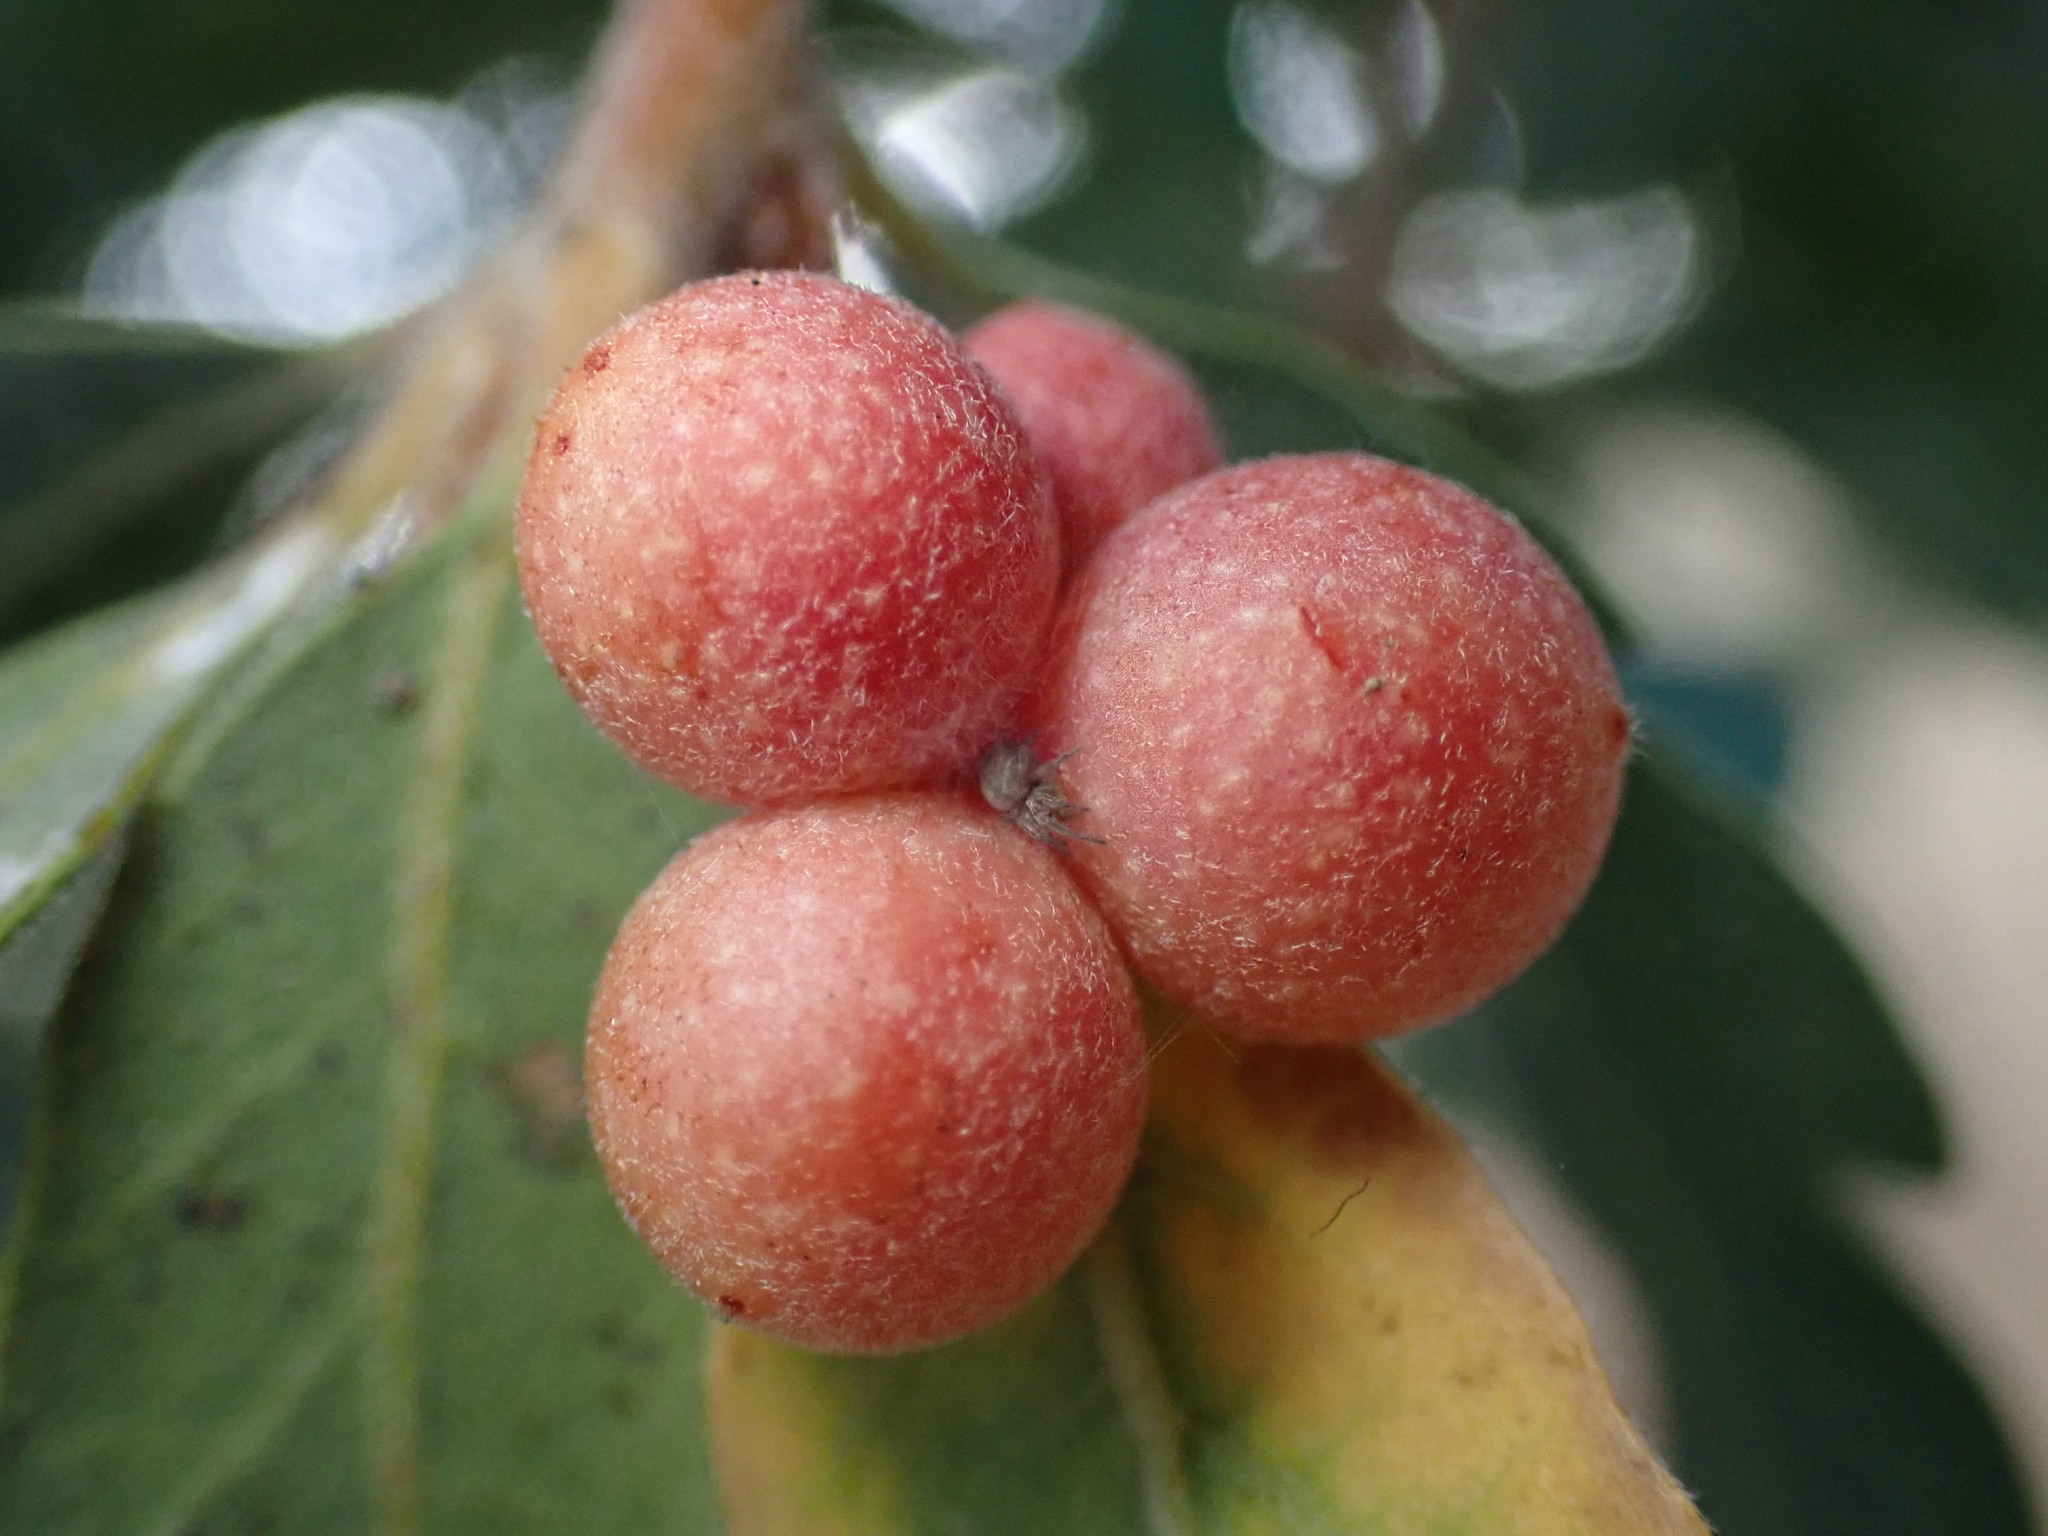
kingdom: Animalia
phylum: Arthropoda
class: Insecta
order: Hymenoptera
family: Cynipidae
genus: Andricus
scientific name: Andricus
